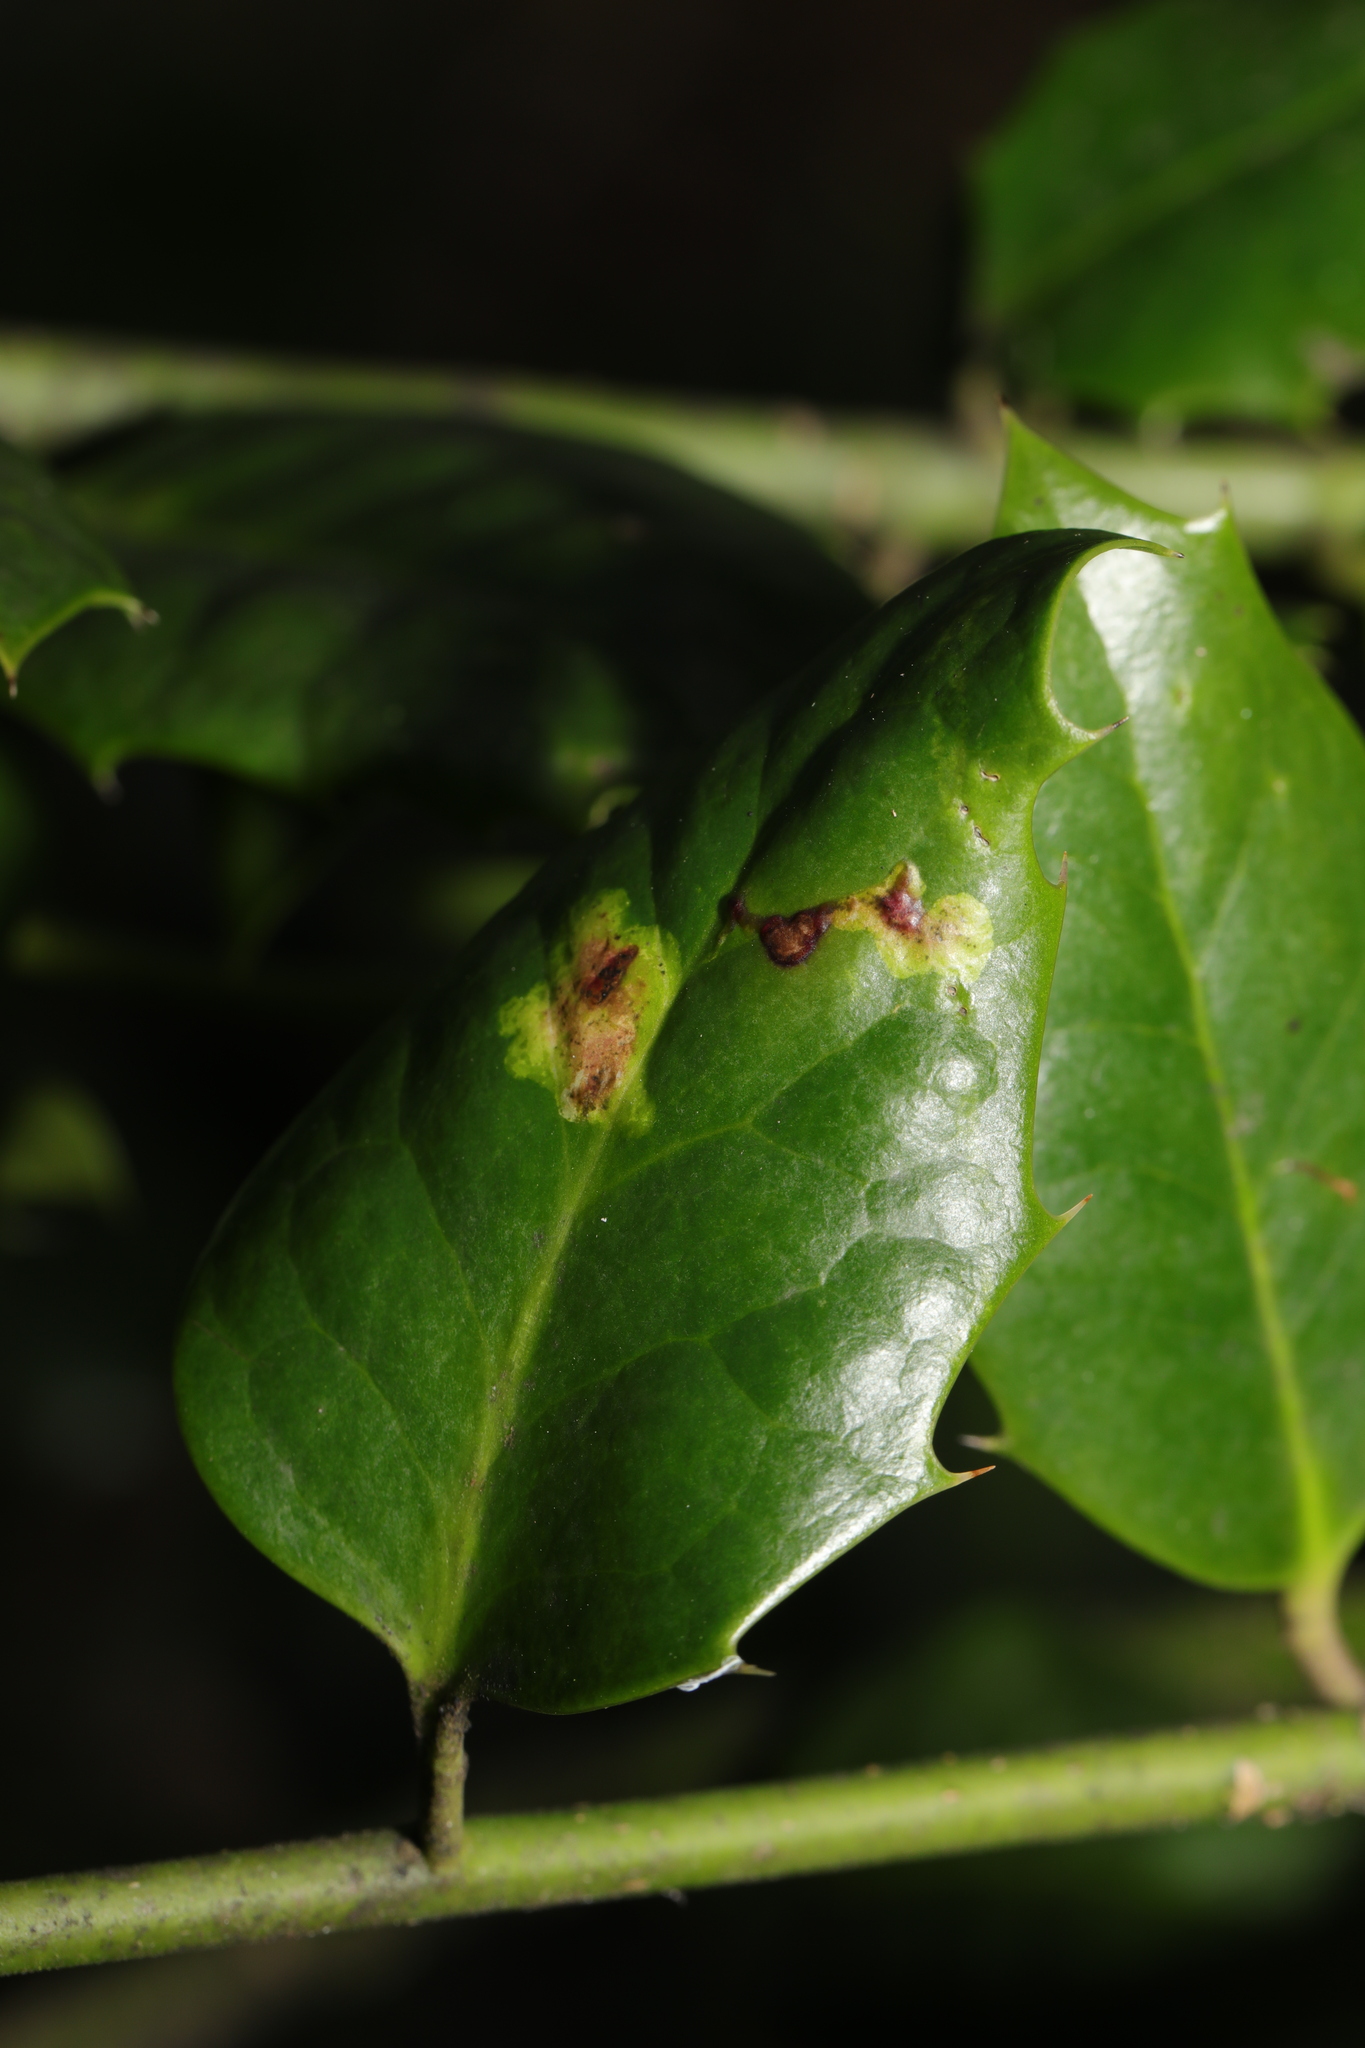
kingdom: Animalia
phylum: Arthropoda
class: Insecta
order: Diptera
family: Agromyzidae
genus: Phytomyza
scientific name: Phytomyza ilicis
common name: Holly leafminer
